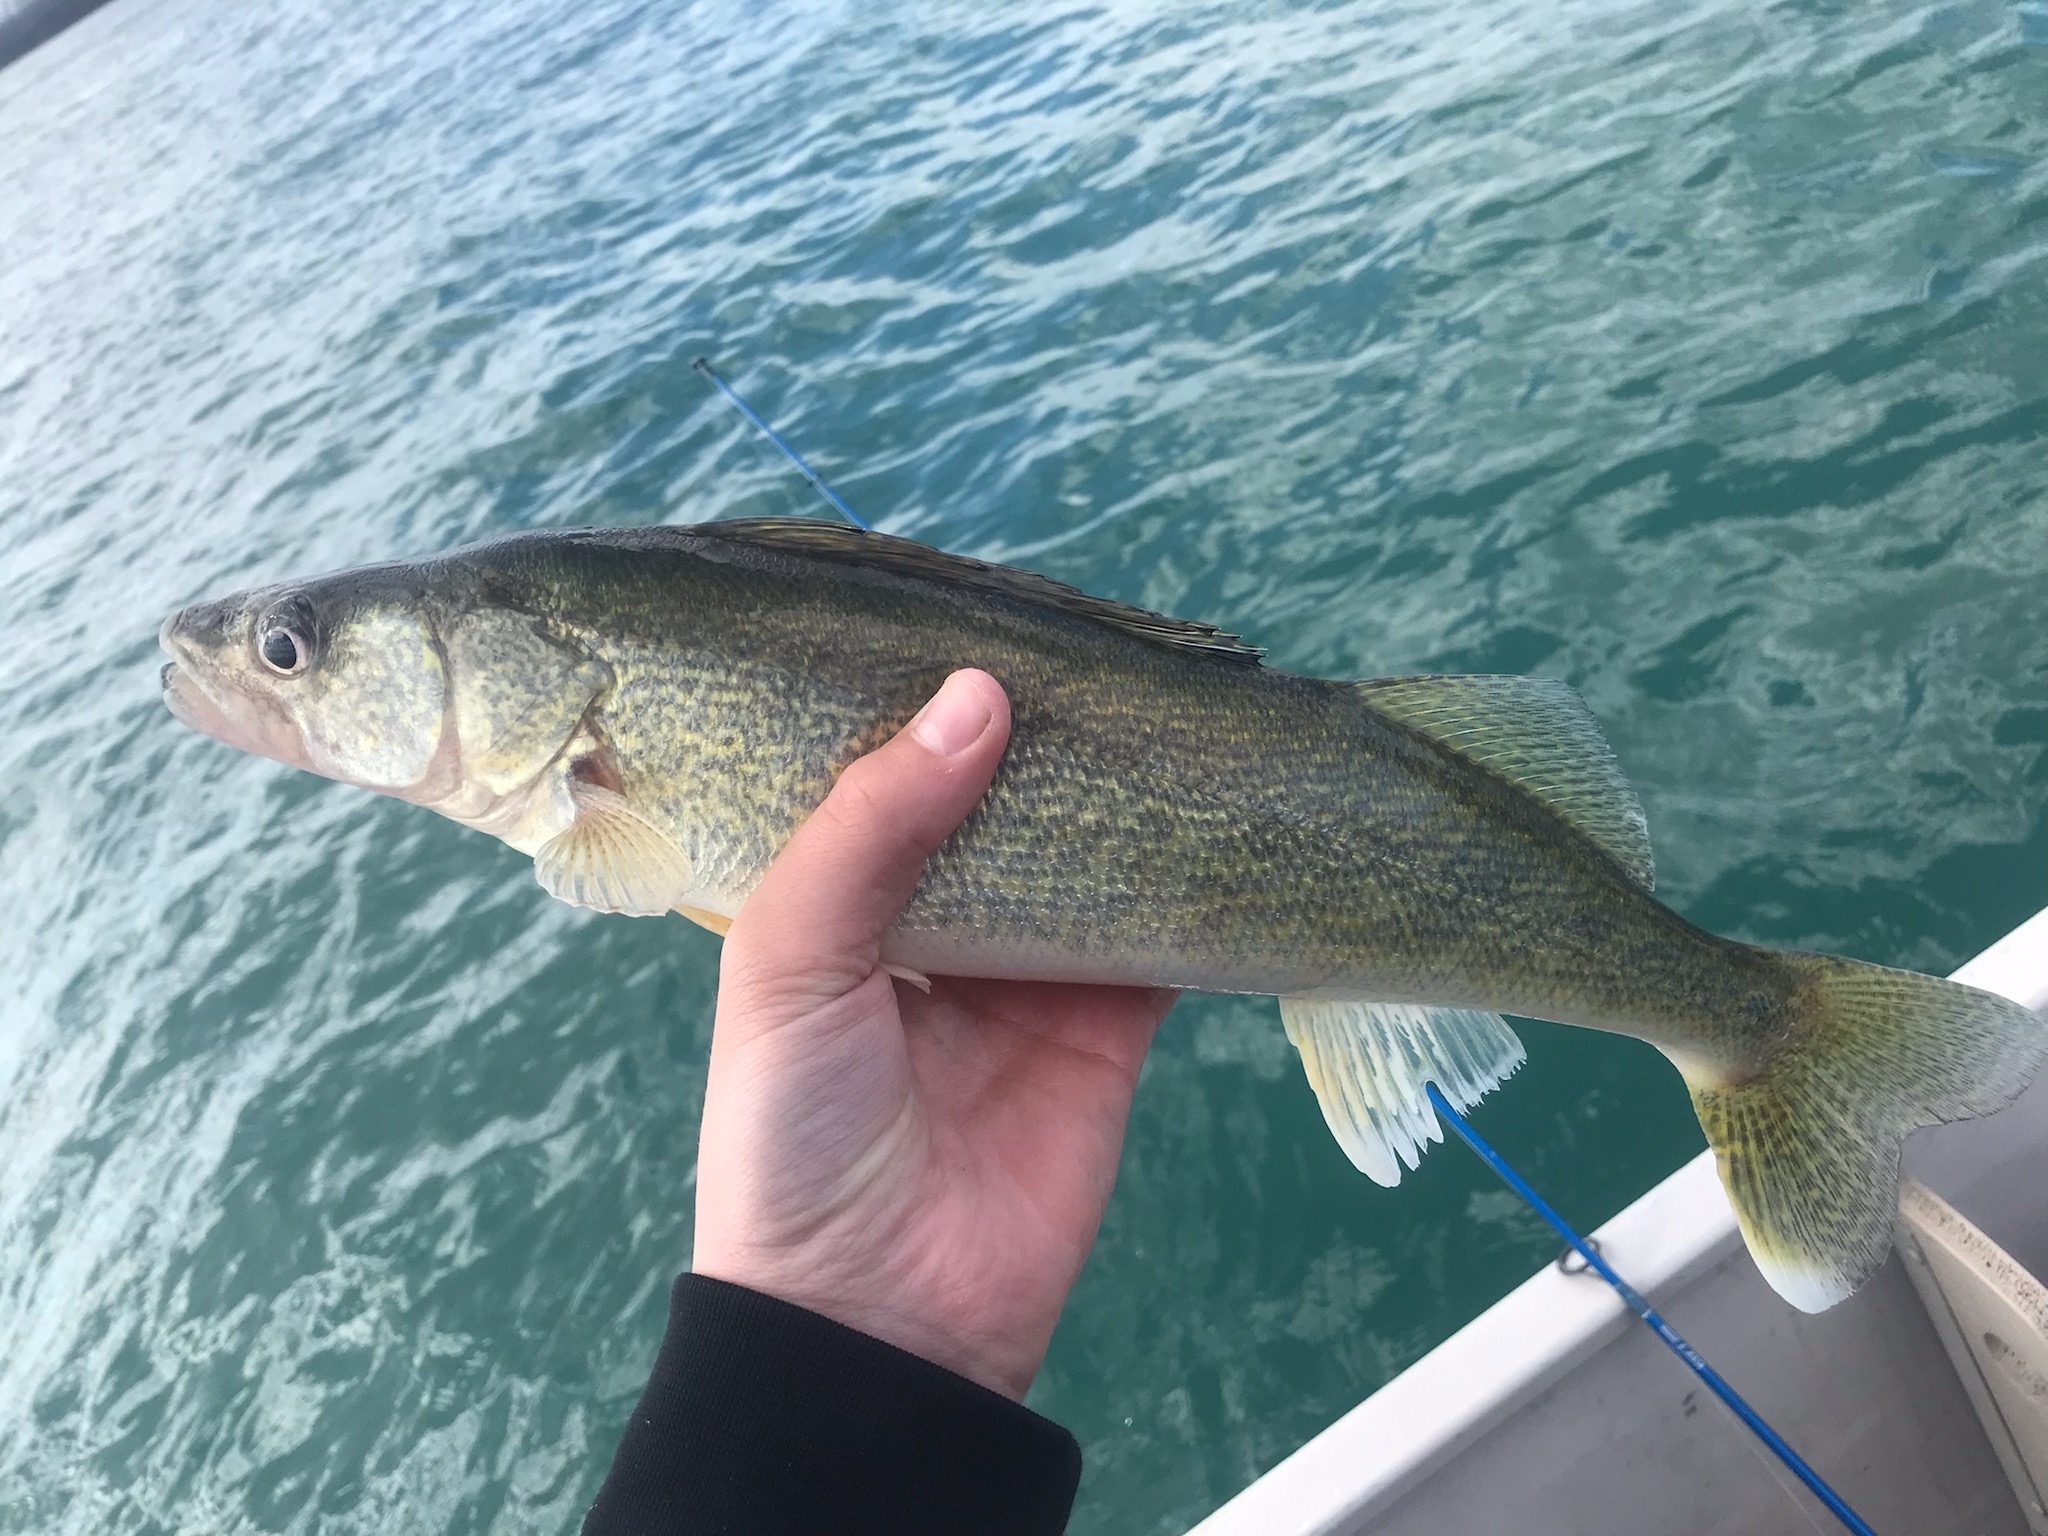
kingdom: Animalia
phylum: Chordata
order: Perciformes
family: Percidae
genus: Sander
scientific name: Sander vitreus
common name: Walleye
